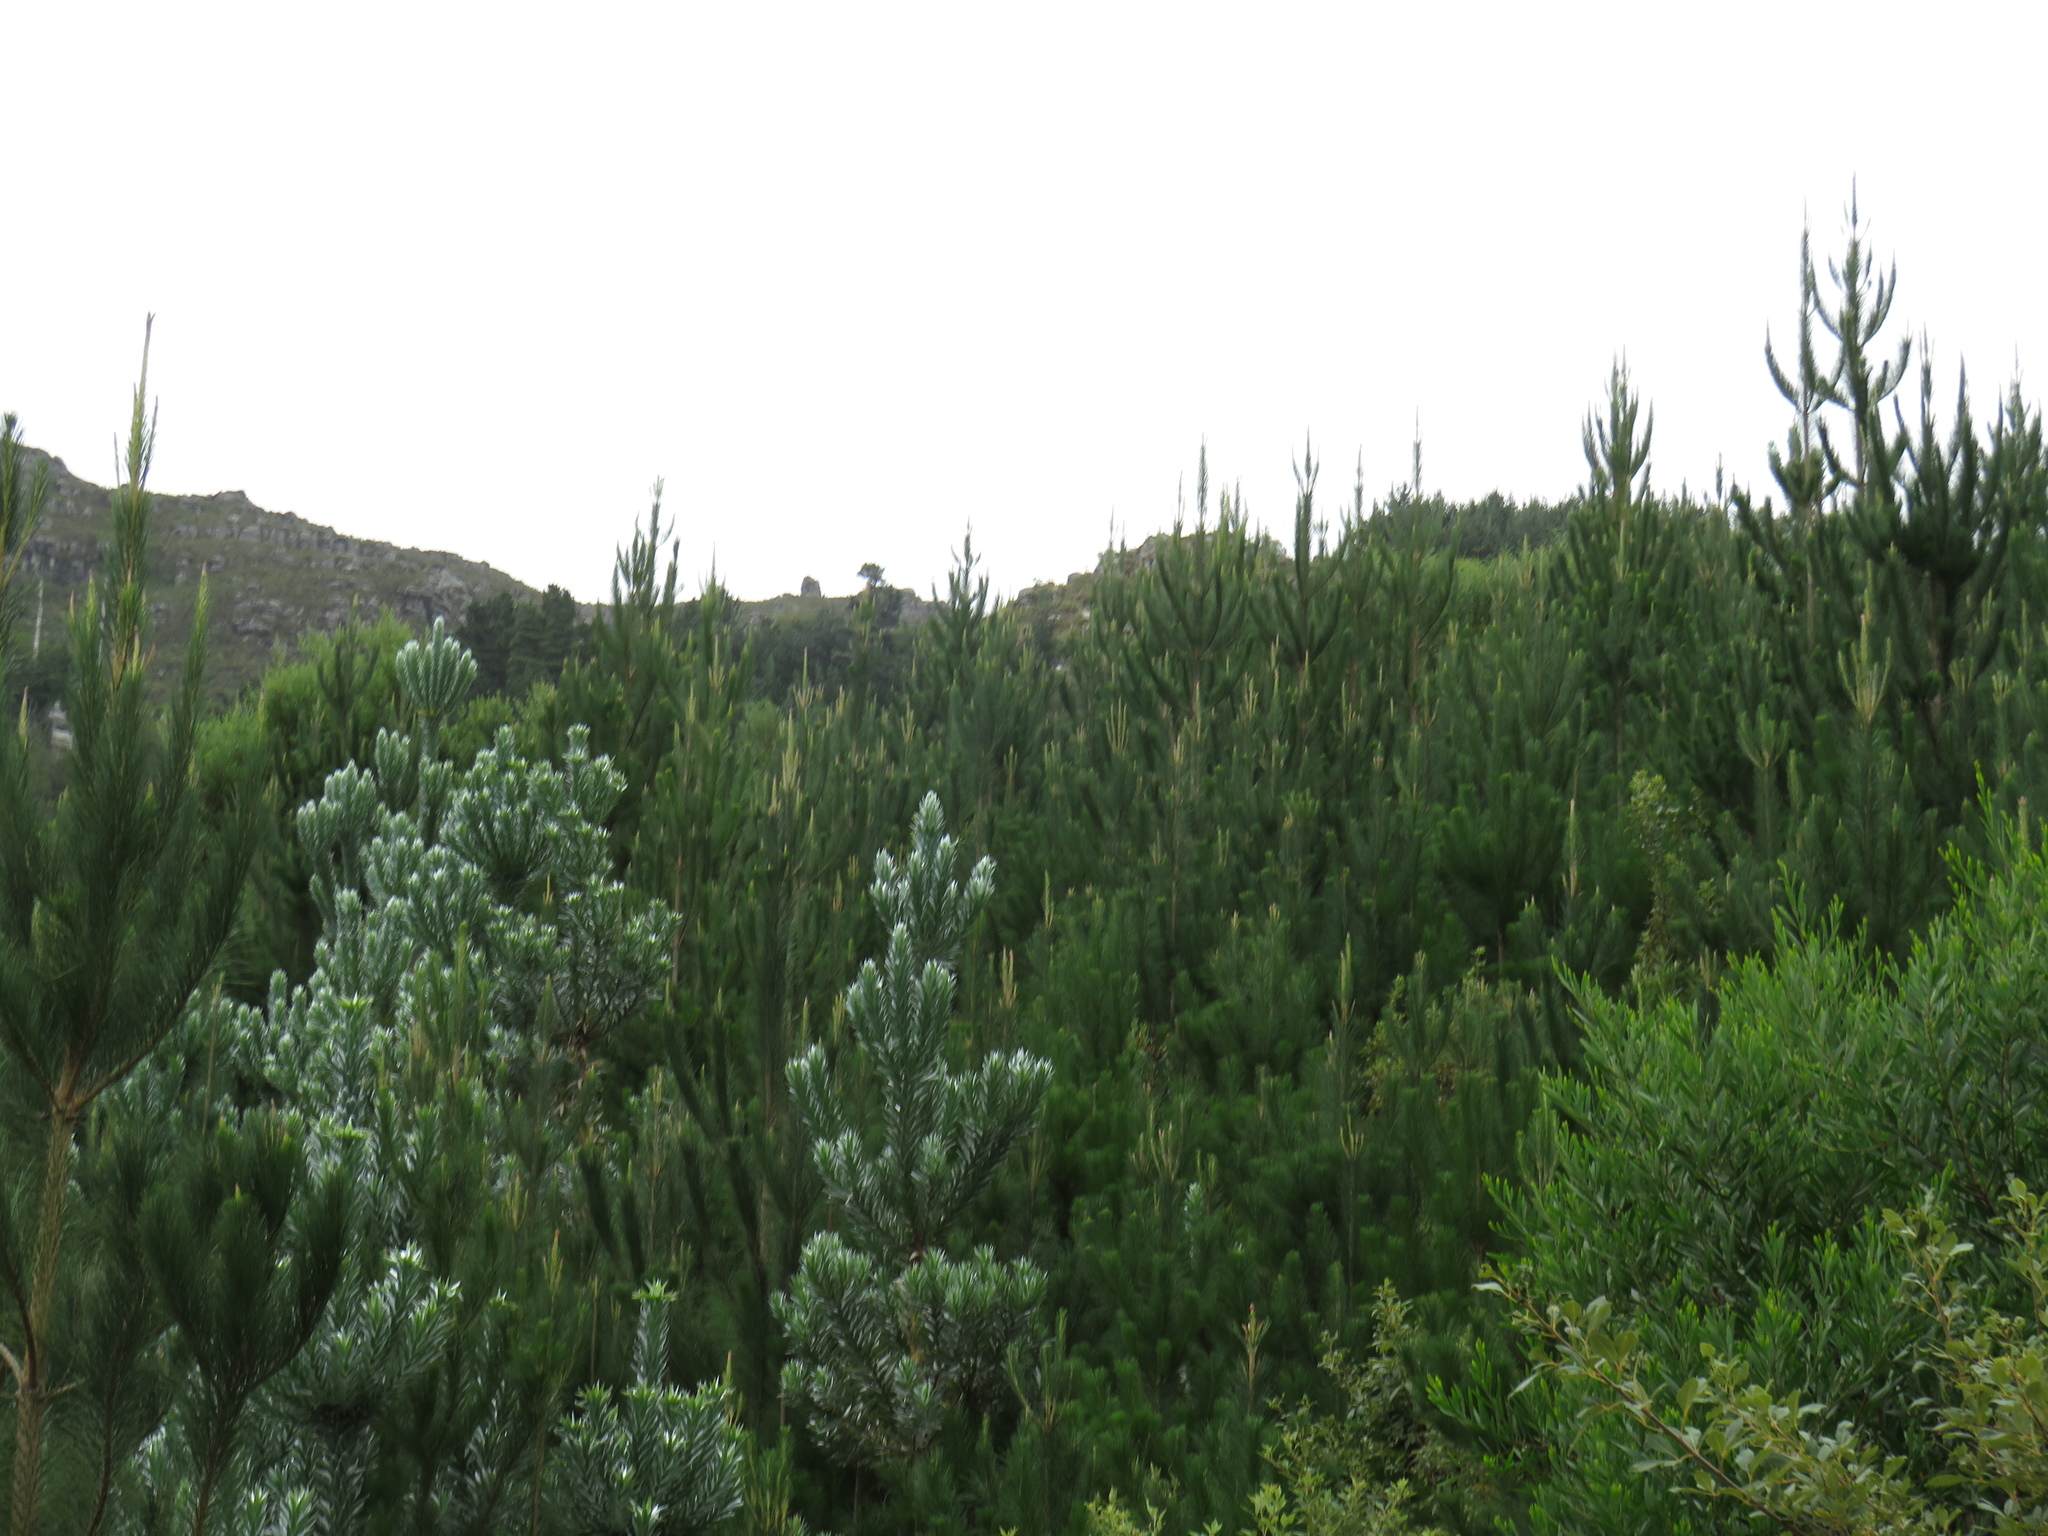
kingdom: Plantae
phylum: Tracheophyta
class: Magnoliopsida
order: Proteales
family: Proteaceae
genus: Leucadendron
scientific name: Leucadendron argenteum
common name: Cape silver tree
